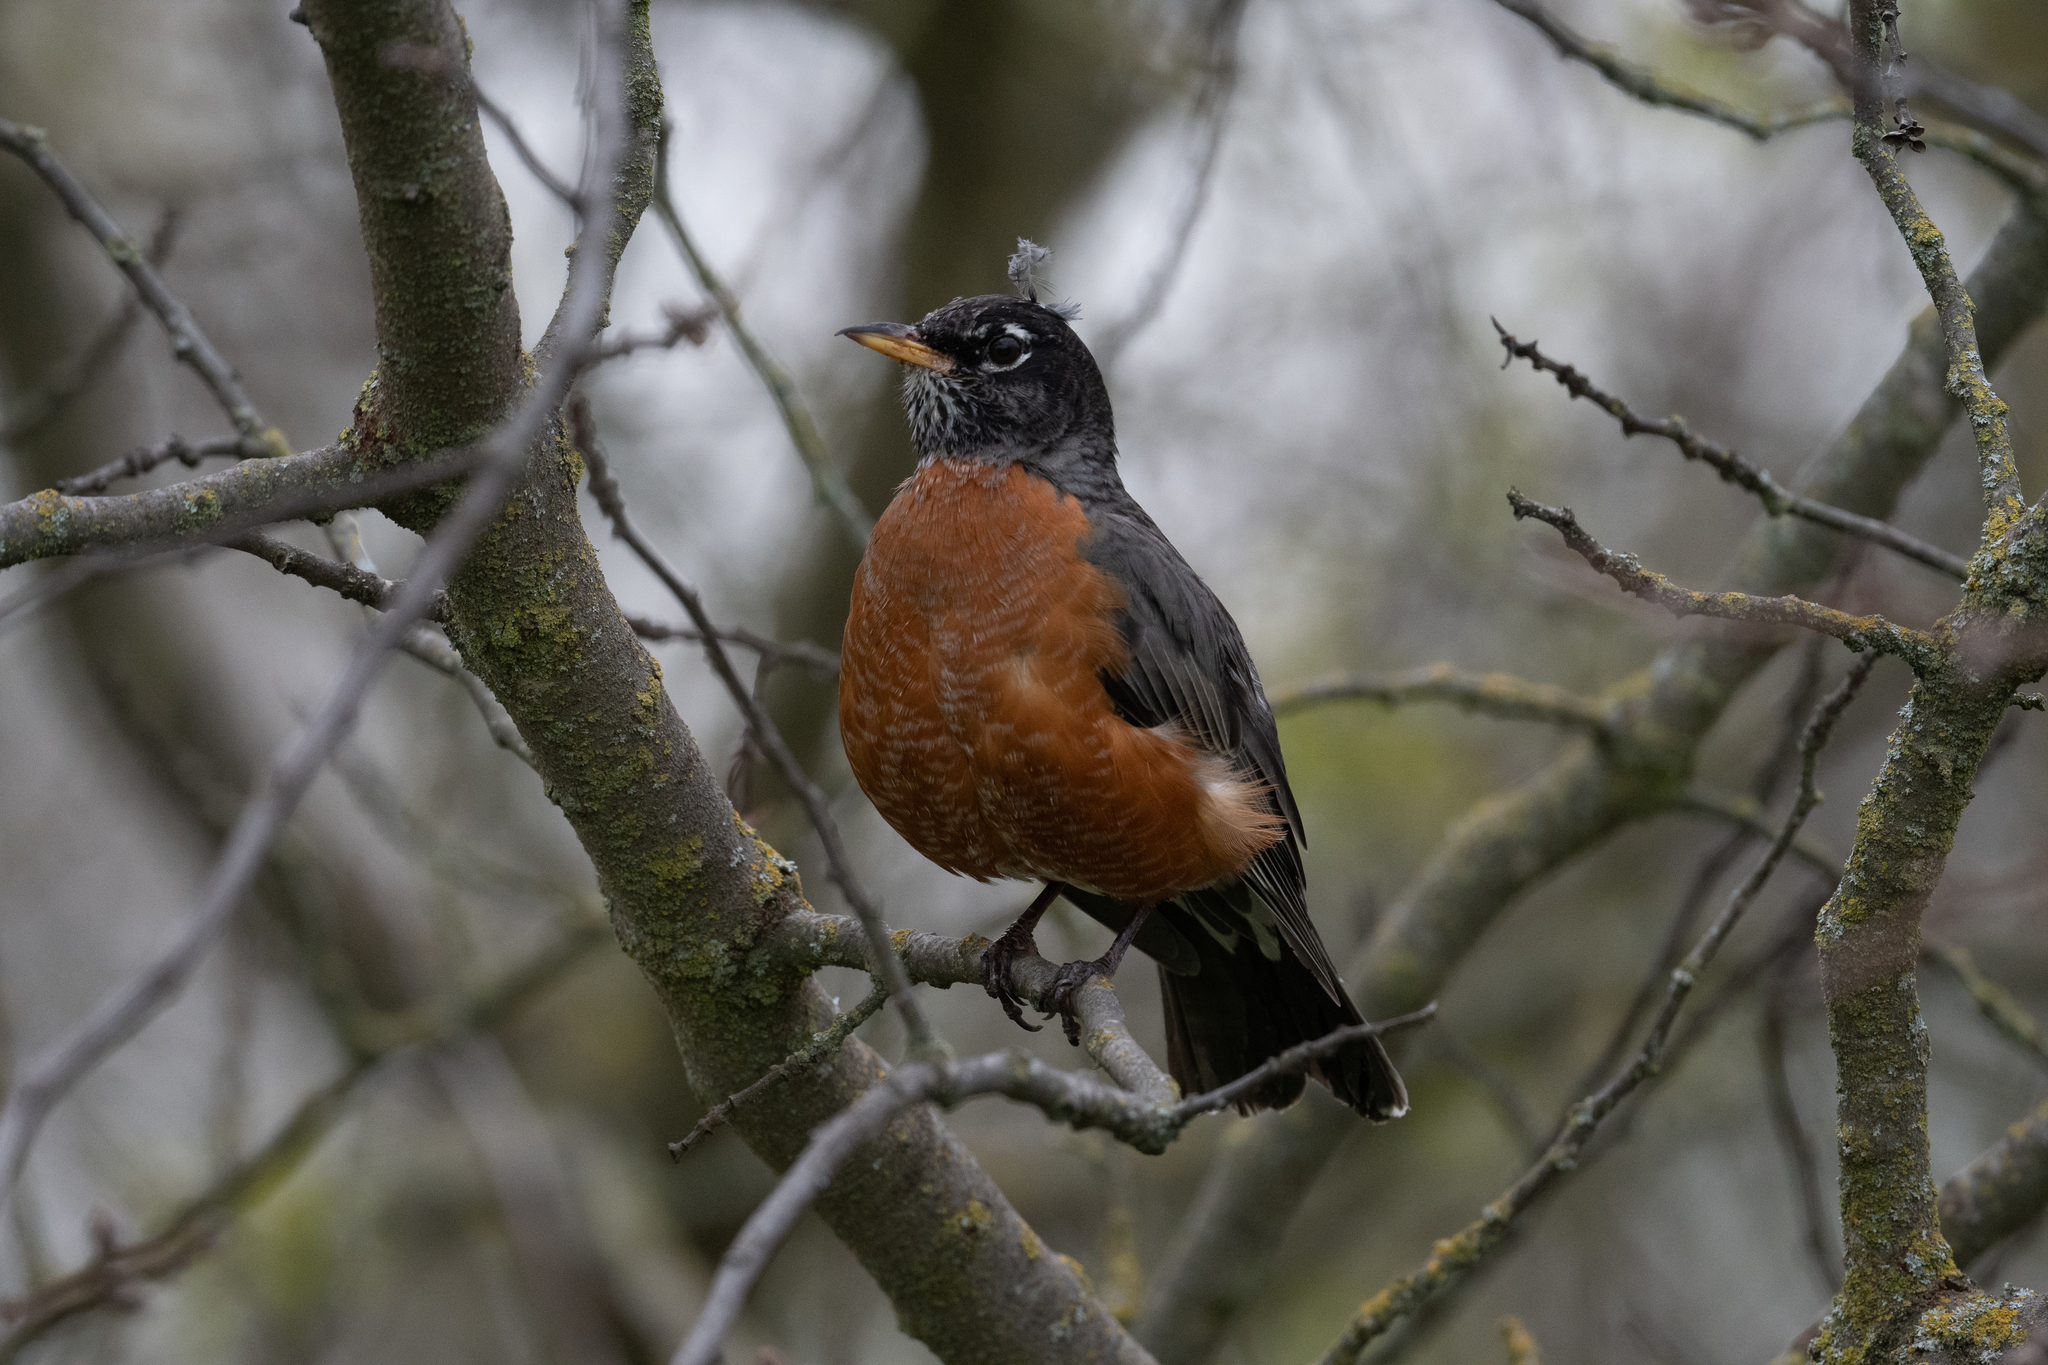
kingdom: Animalia
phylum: Chordata
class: Aves
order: Passeriformes
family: Turdidae
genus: Turdus
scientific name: Turdus migratorius
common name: American robin
